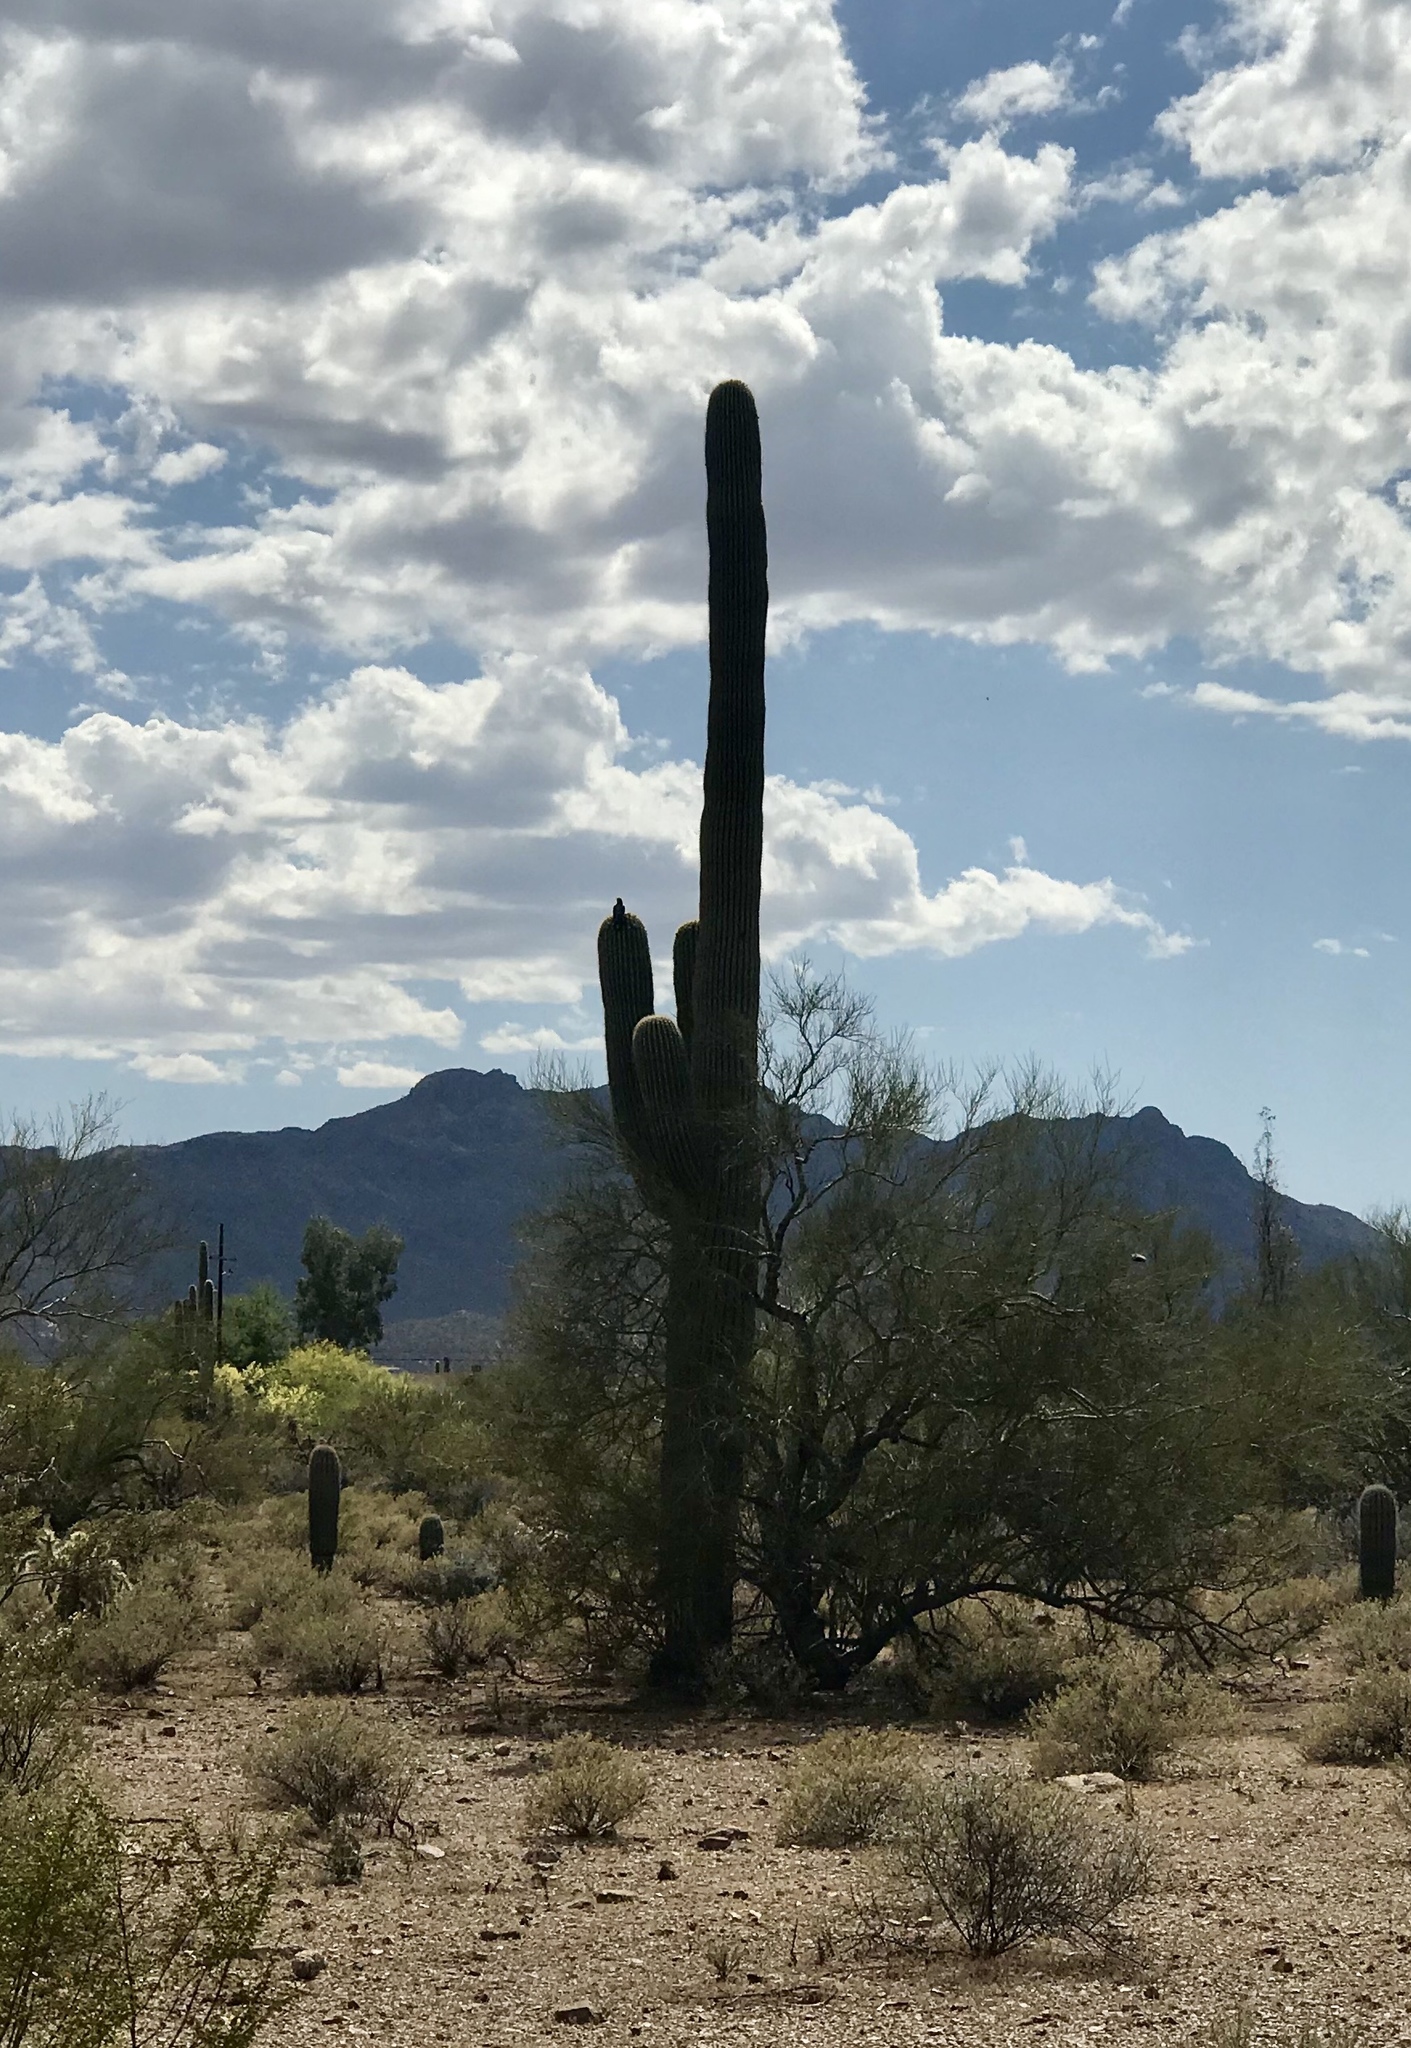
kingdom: Plantae
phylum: Tracheophyta
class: Magnoliopsida
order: Caryophyllales
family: Cactaceae
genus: Carnegiea
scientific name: Carnegiea gigantea
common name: Saguaro
